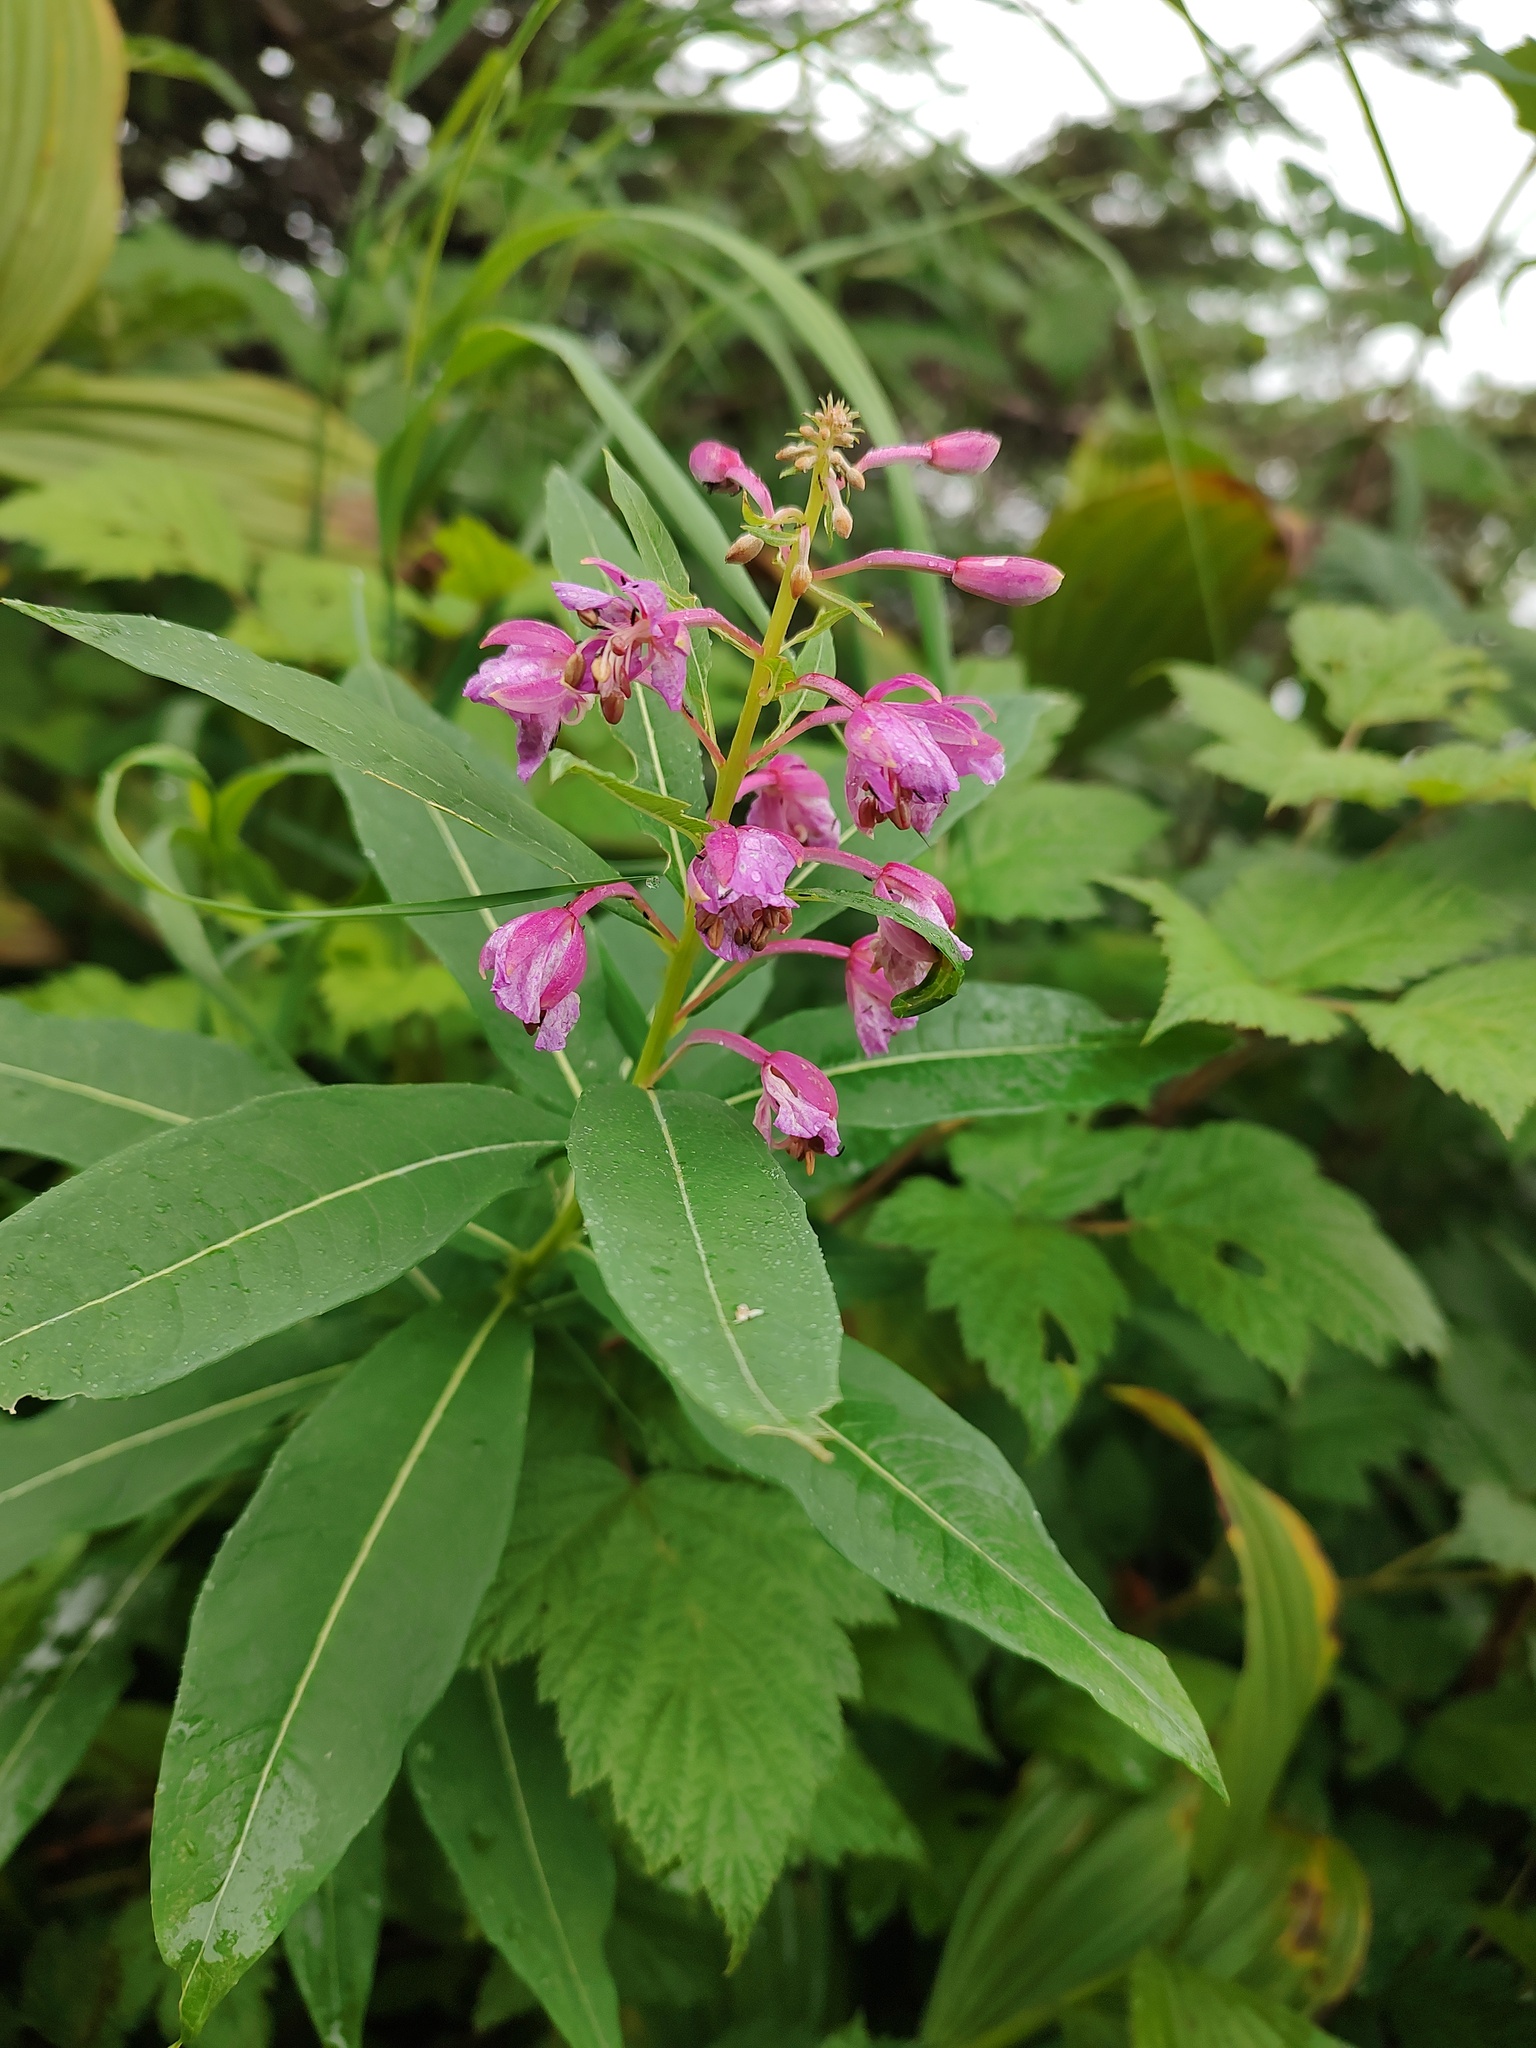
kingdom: Plantae
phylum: Tracheophyta
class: Magnoliopsida
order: Myrtales
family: Onagraceae
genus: Chamaenerion
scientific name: Chamaenerion angustifolium
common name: Fireweed
